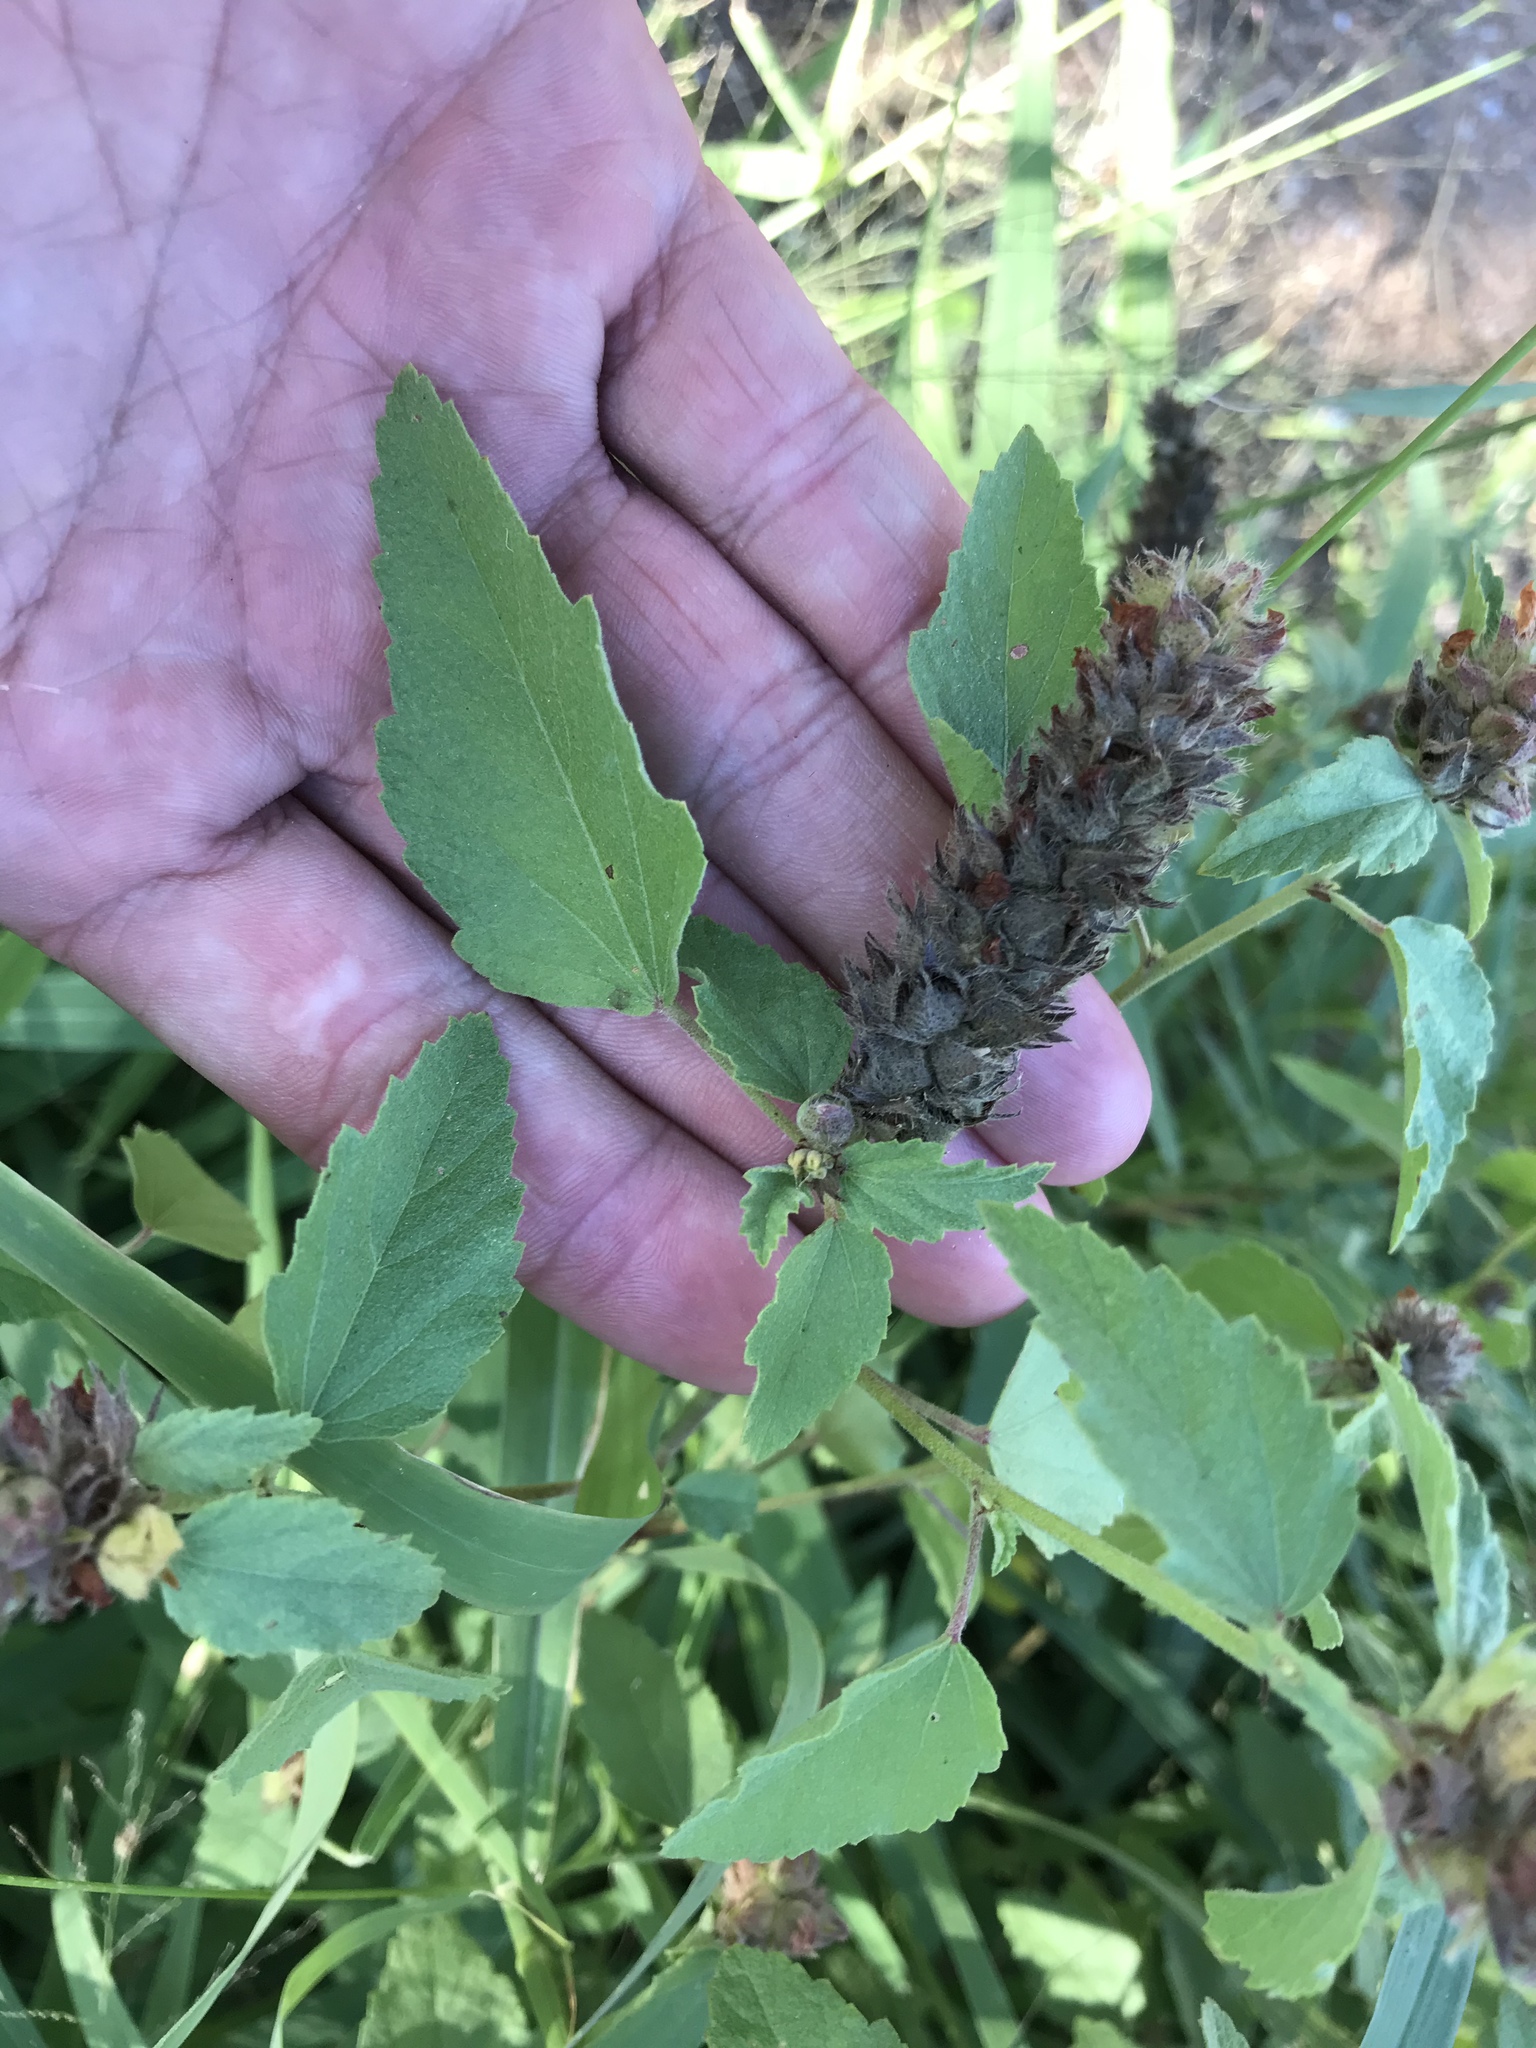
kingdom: Plantae
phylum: Tracheophyta
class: Magnoliopsida
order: Malvales
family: Malvaceae
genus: Malvastrum
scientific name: Malvastrum americanum
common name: Spiked malvastrum
